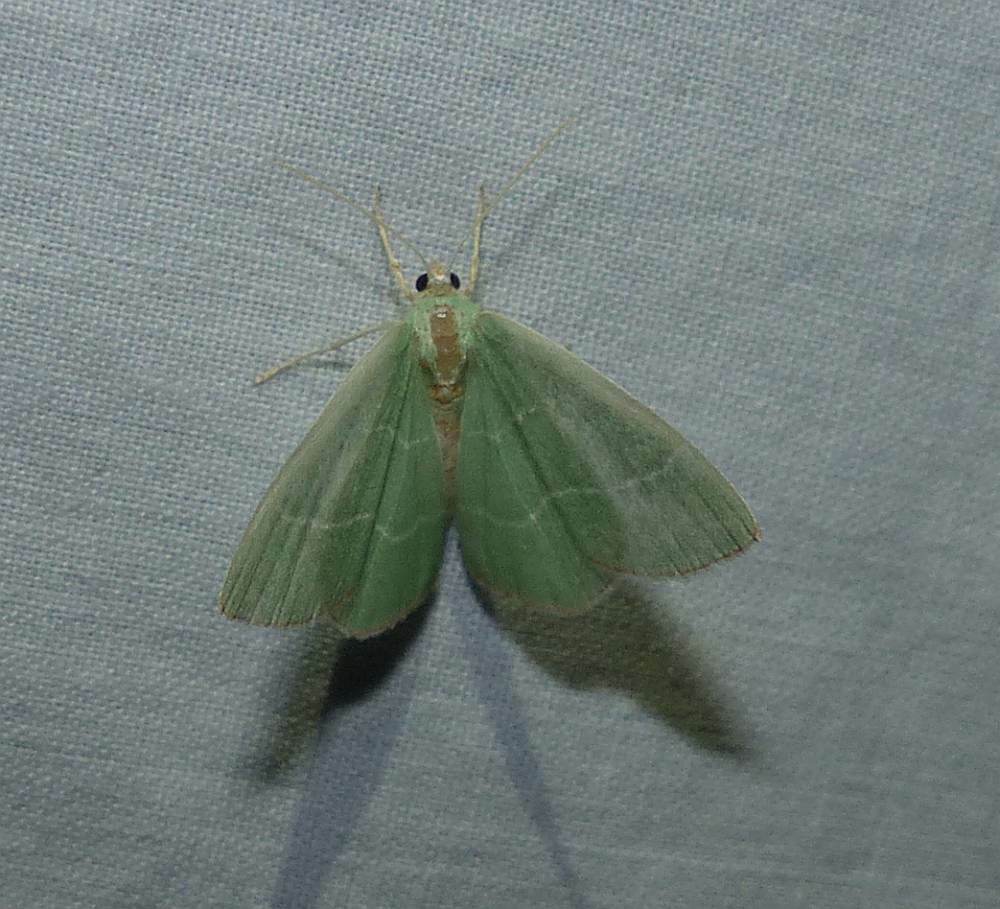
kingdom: Animalia
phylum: Arthropoda
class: Insecta
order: Lepidoptera
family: Geometridae
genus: Nemoria
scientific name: Nemoria bistriaria
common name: Red-fringed emerald
